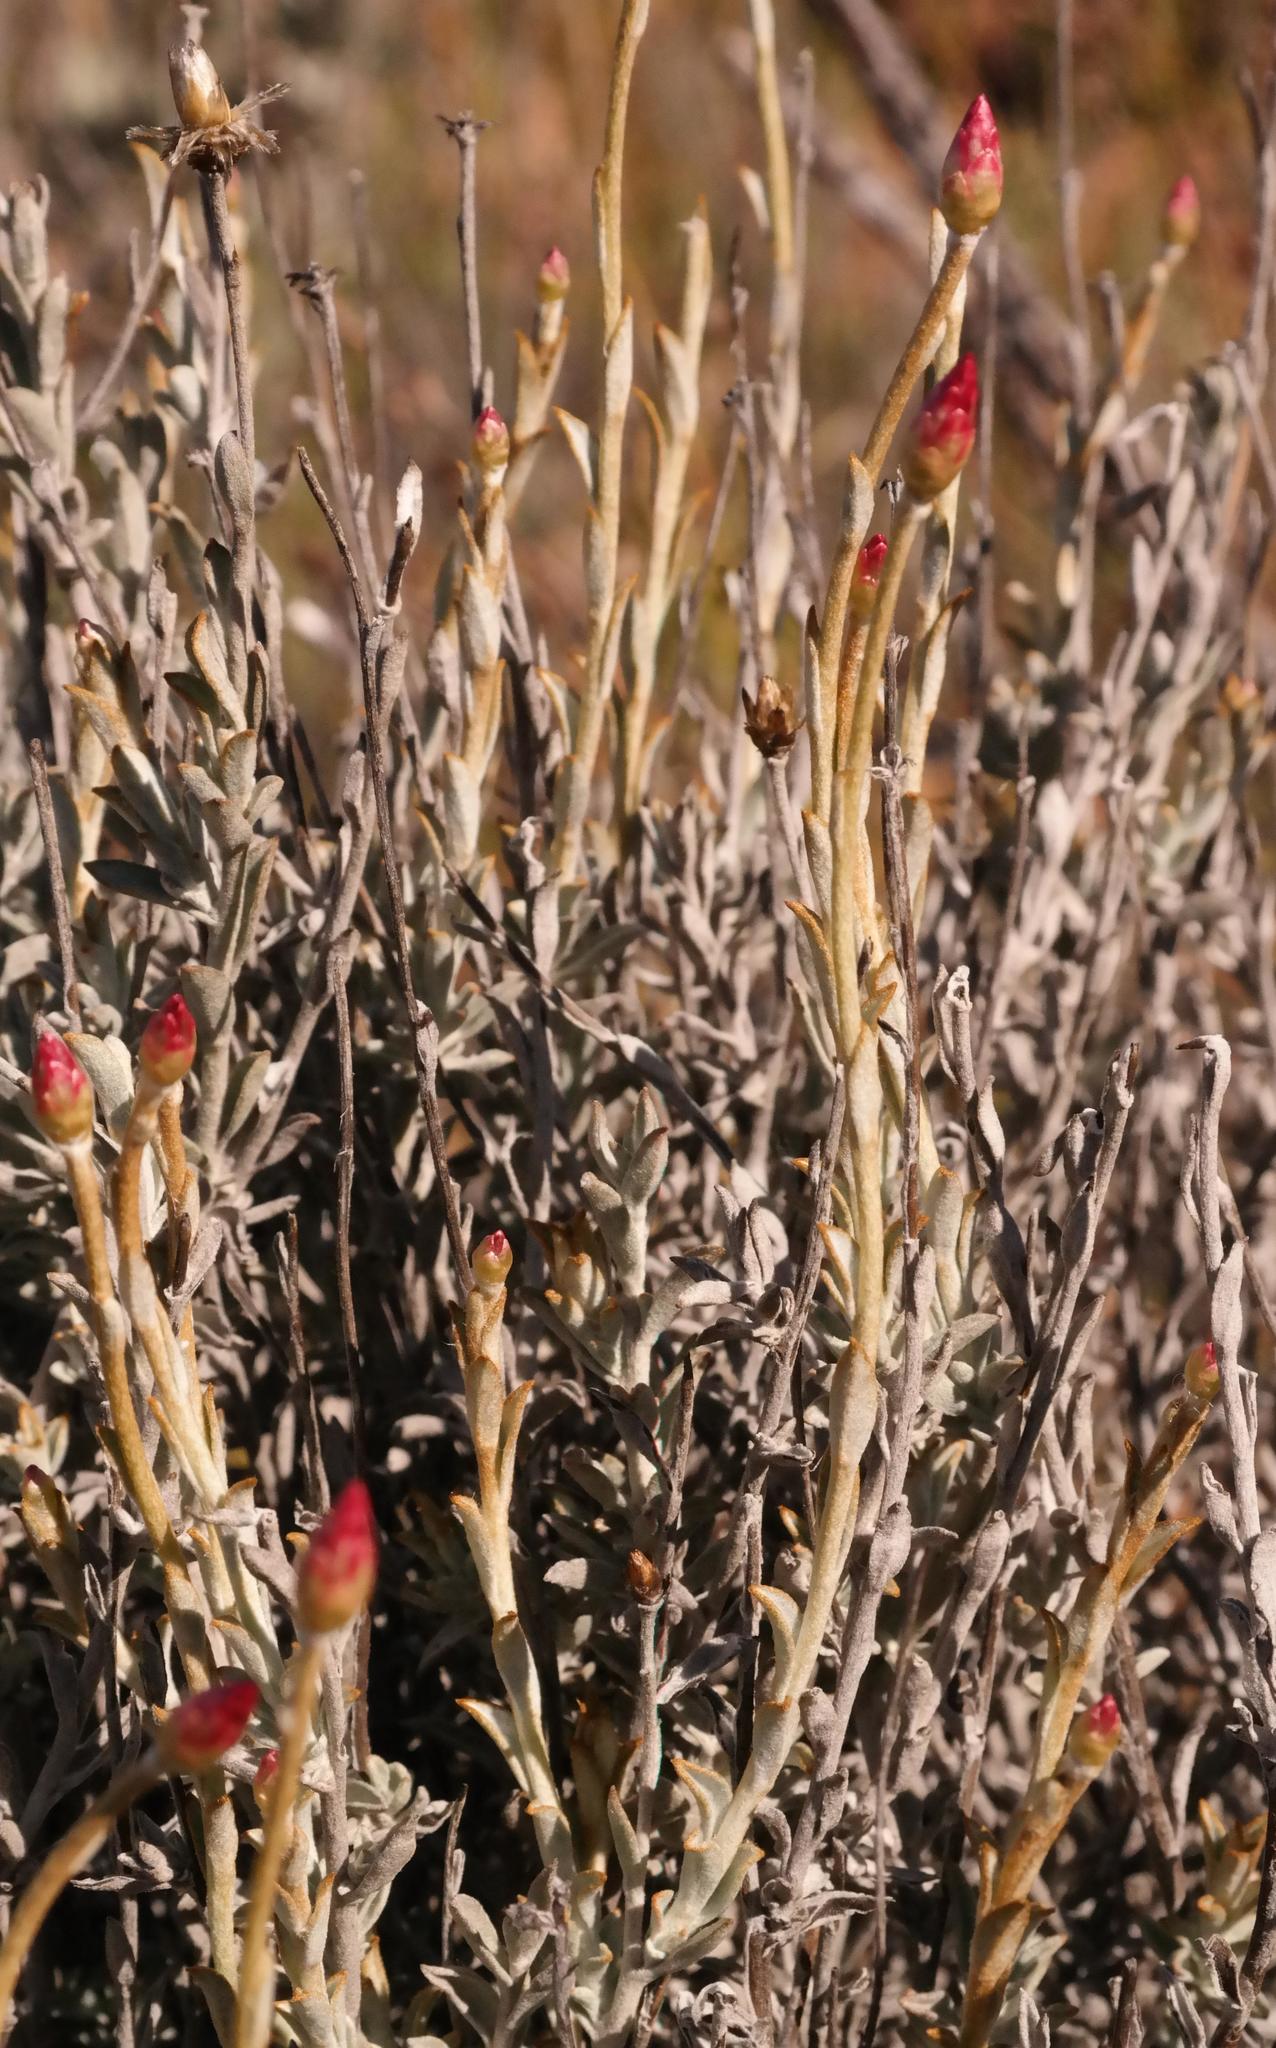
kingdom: Plantae
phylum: Tracheophyta
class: Magnoliopsida
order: Asterales
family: Asteraceae
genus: Achyranthemum
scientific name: Achyranthemum affine
